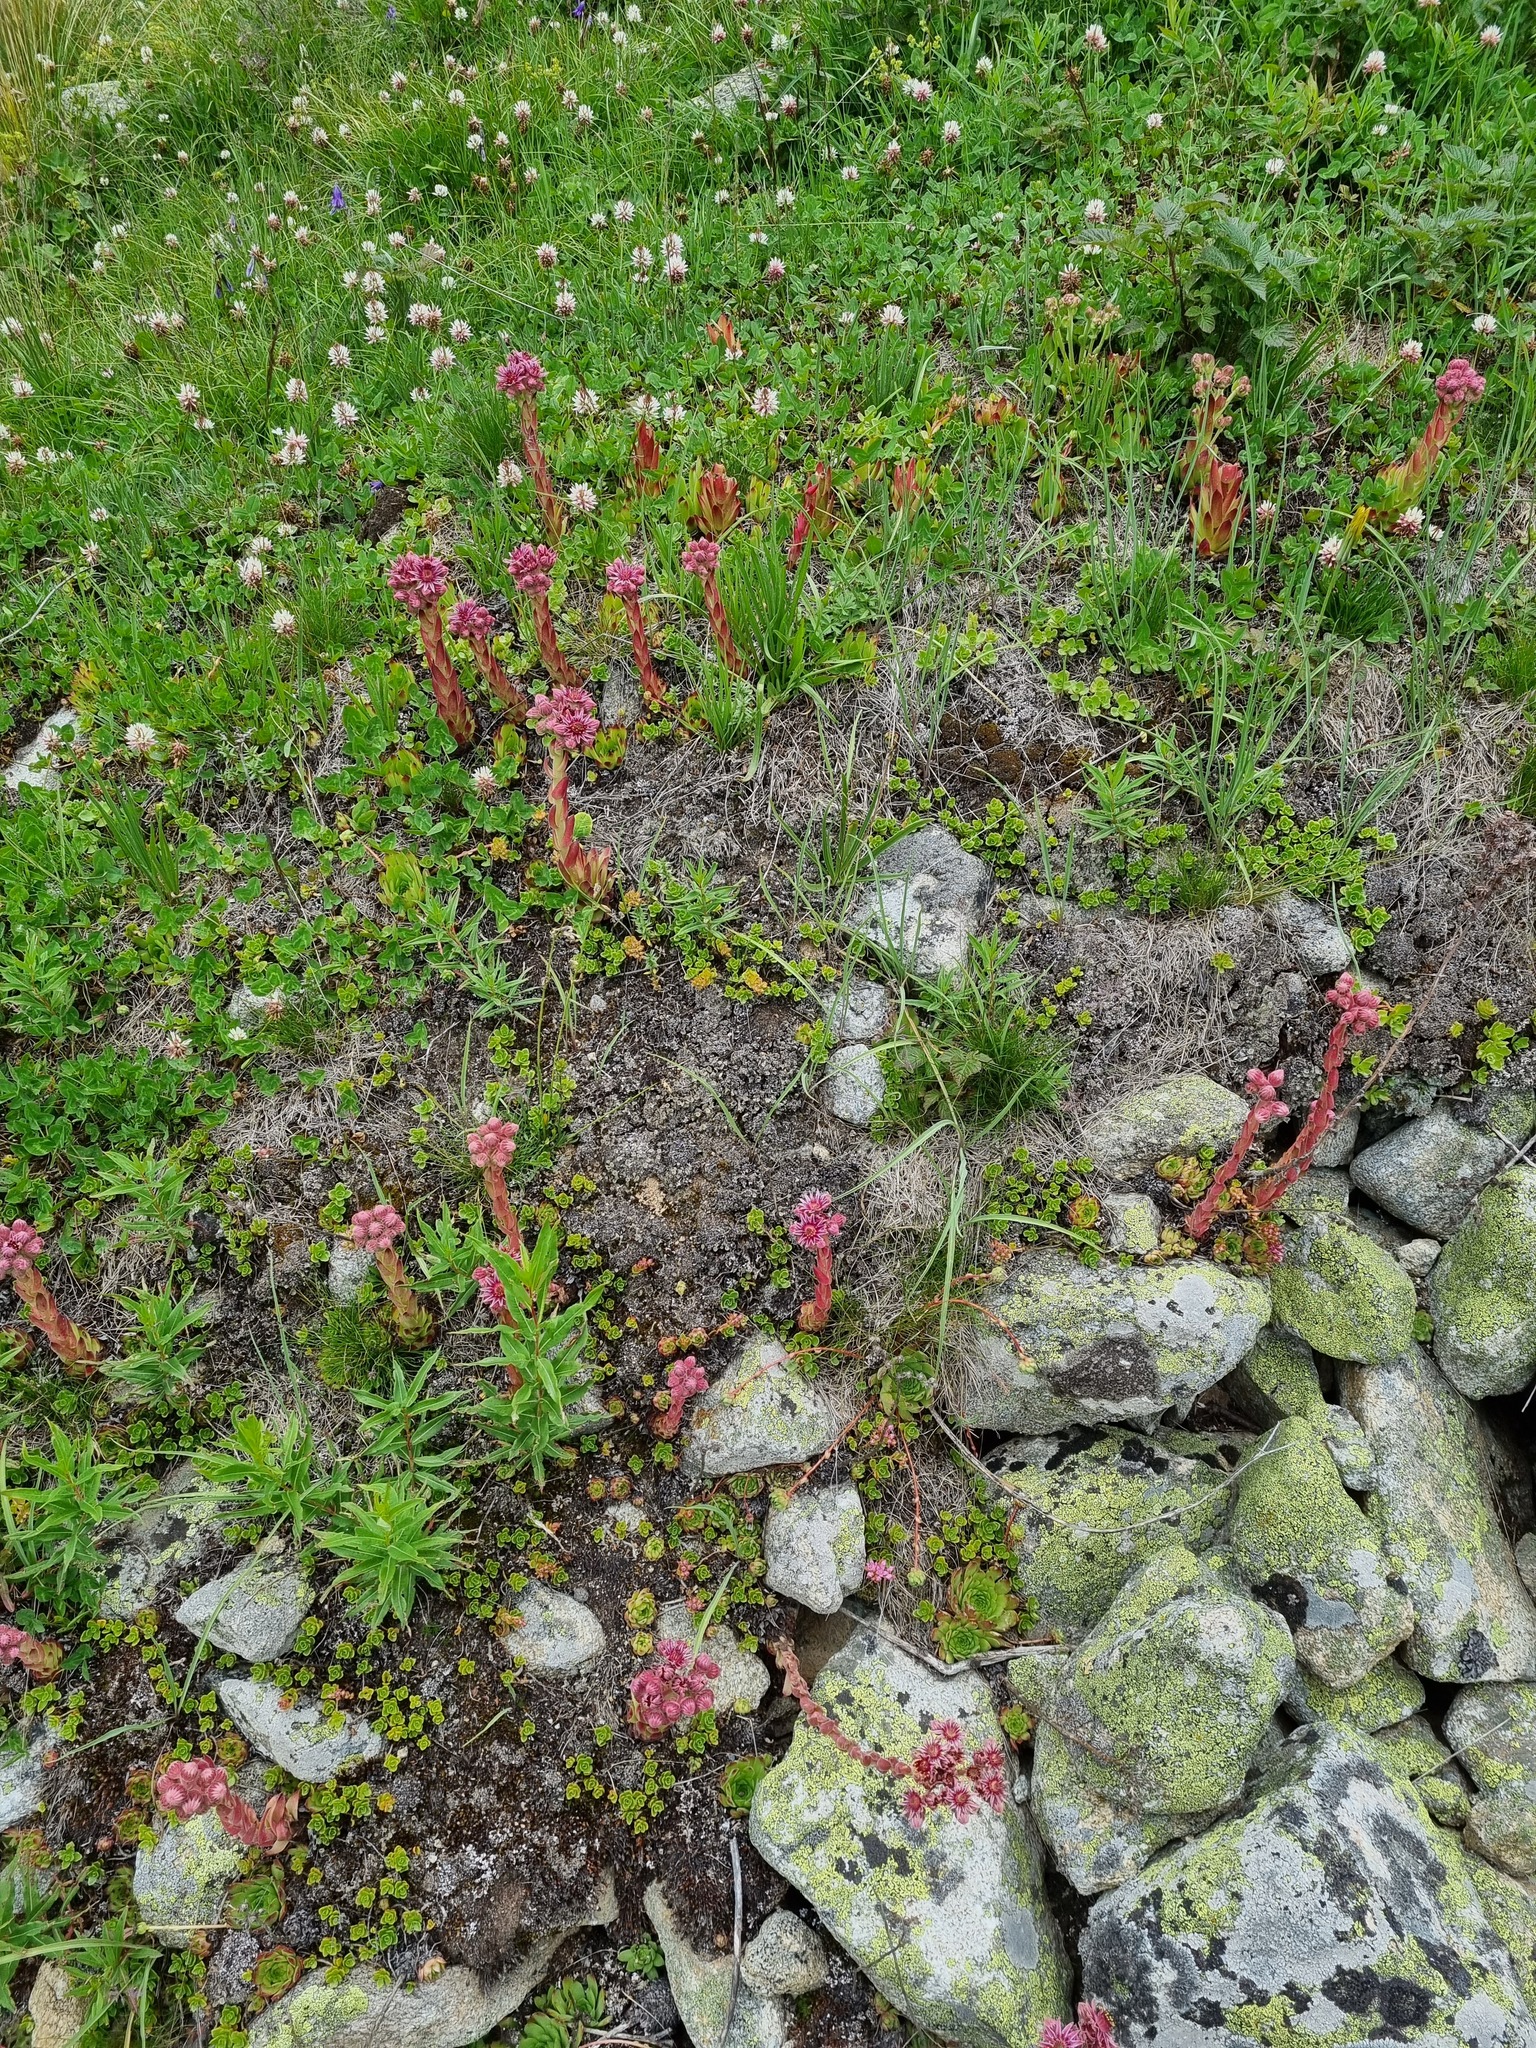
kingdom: Plantae
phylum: Tracheophyta
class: Magnoliopsida
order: Saxifragales
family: Crassulaceae
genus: Sempervivum
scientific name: Sempervivum caucasicum
